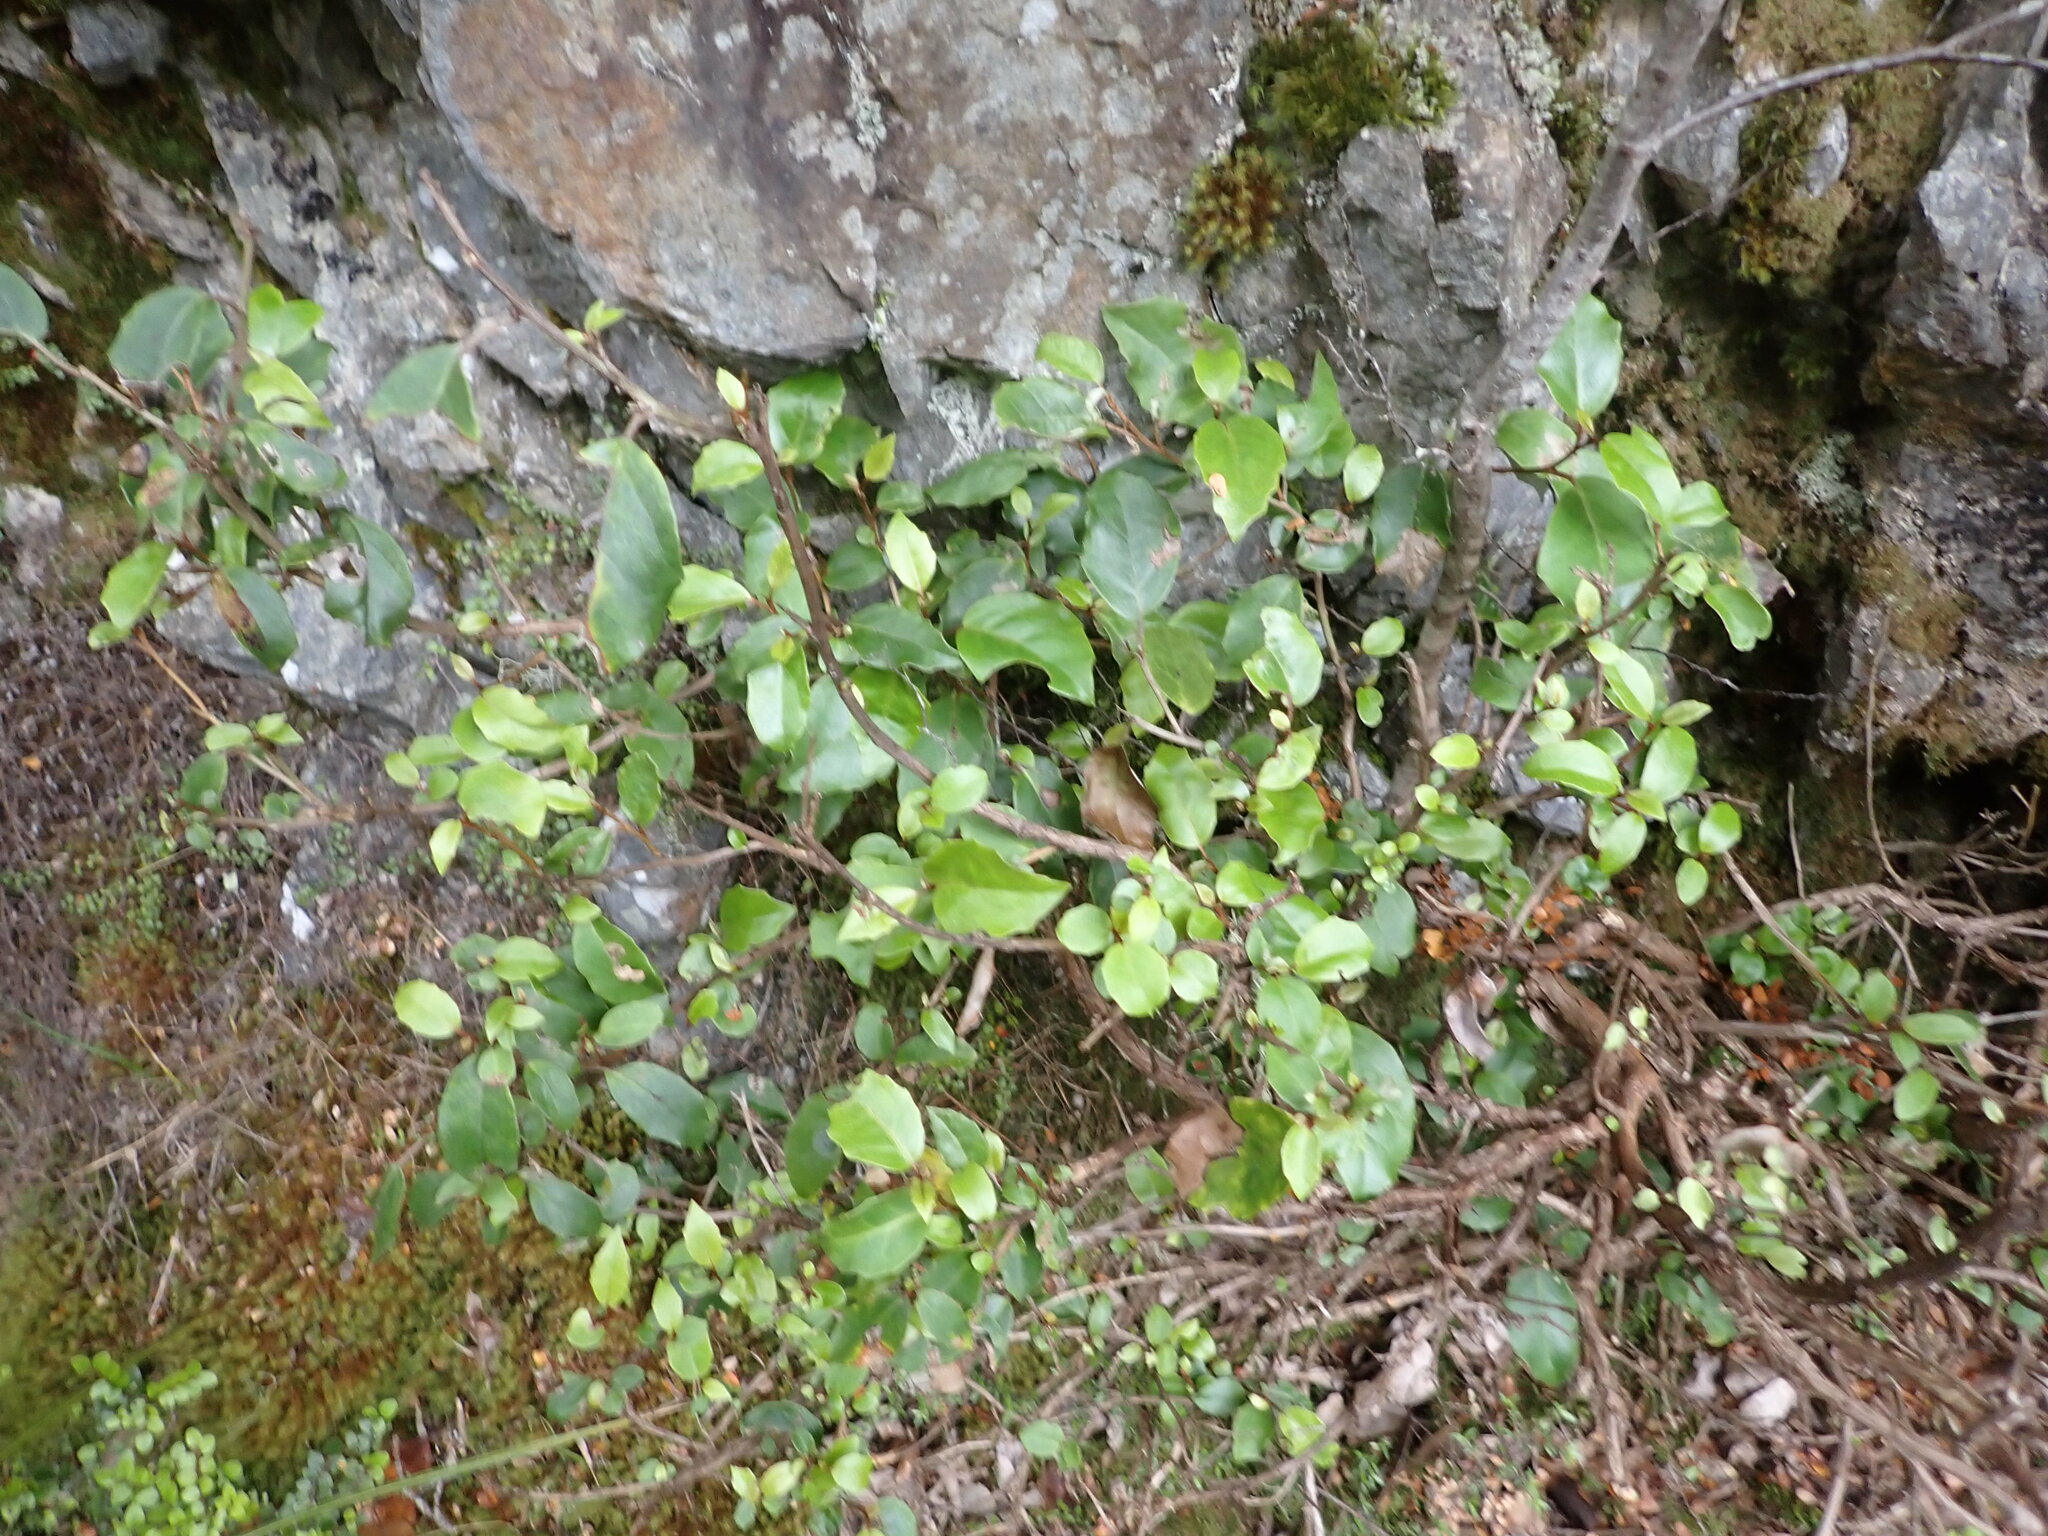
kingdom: Plantae
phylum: Tracheophyta
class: Magnoliopsida
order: Asterales
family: Asteraceae
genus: Olearia
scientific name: Olearia arborescens
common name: Glossy tree daisy
